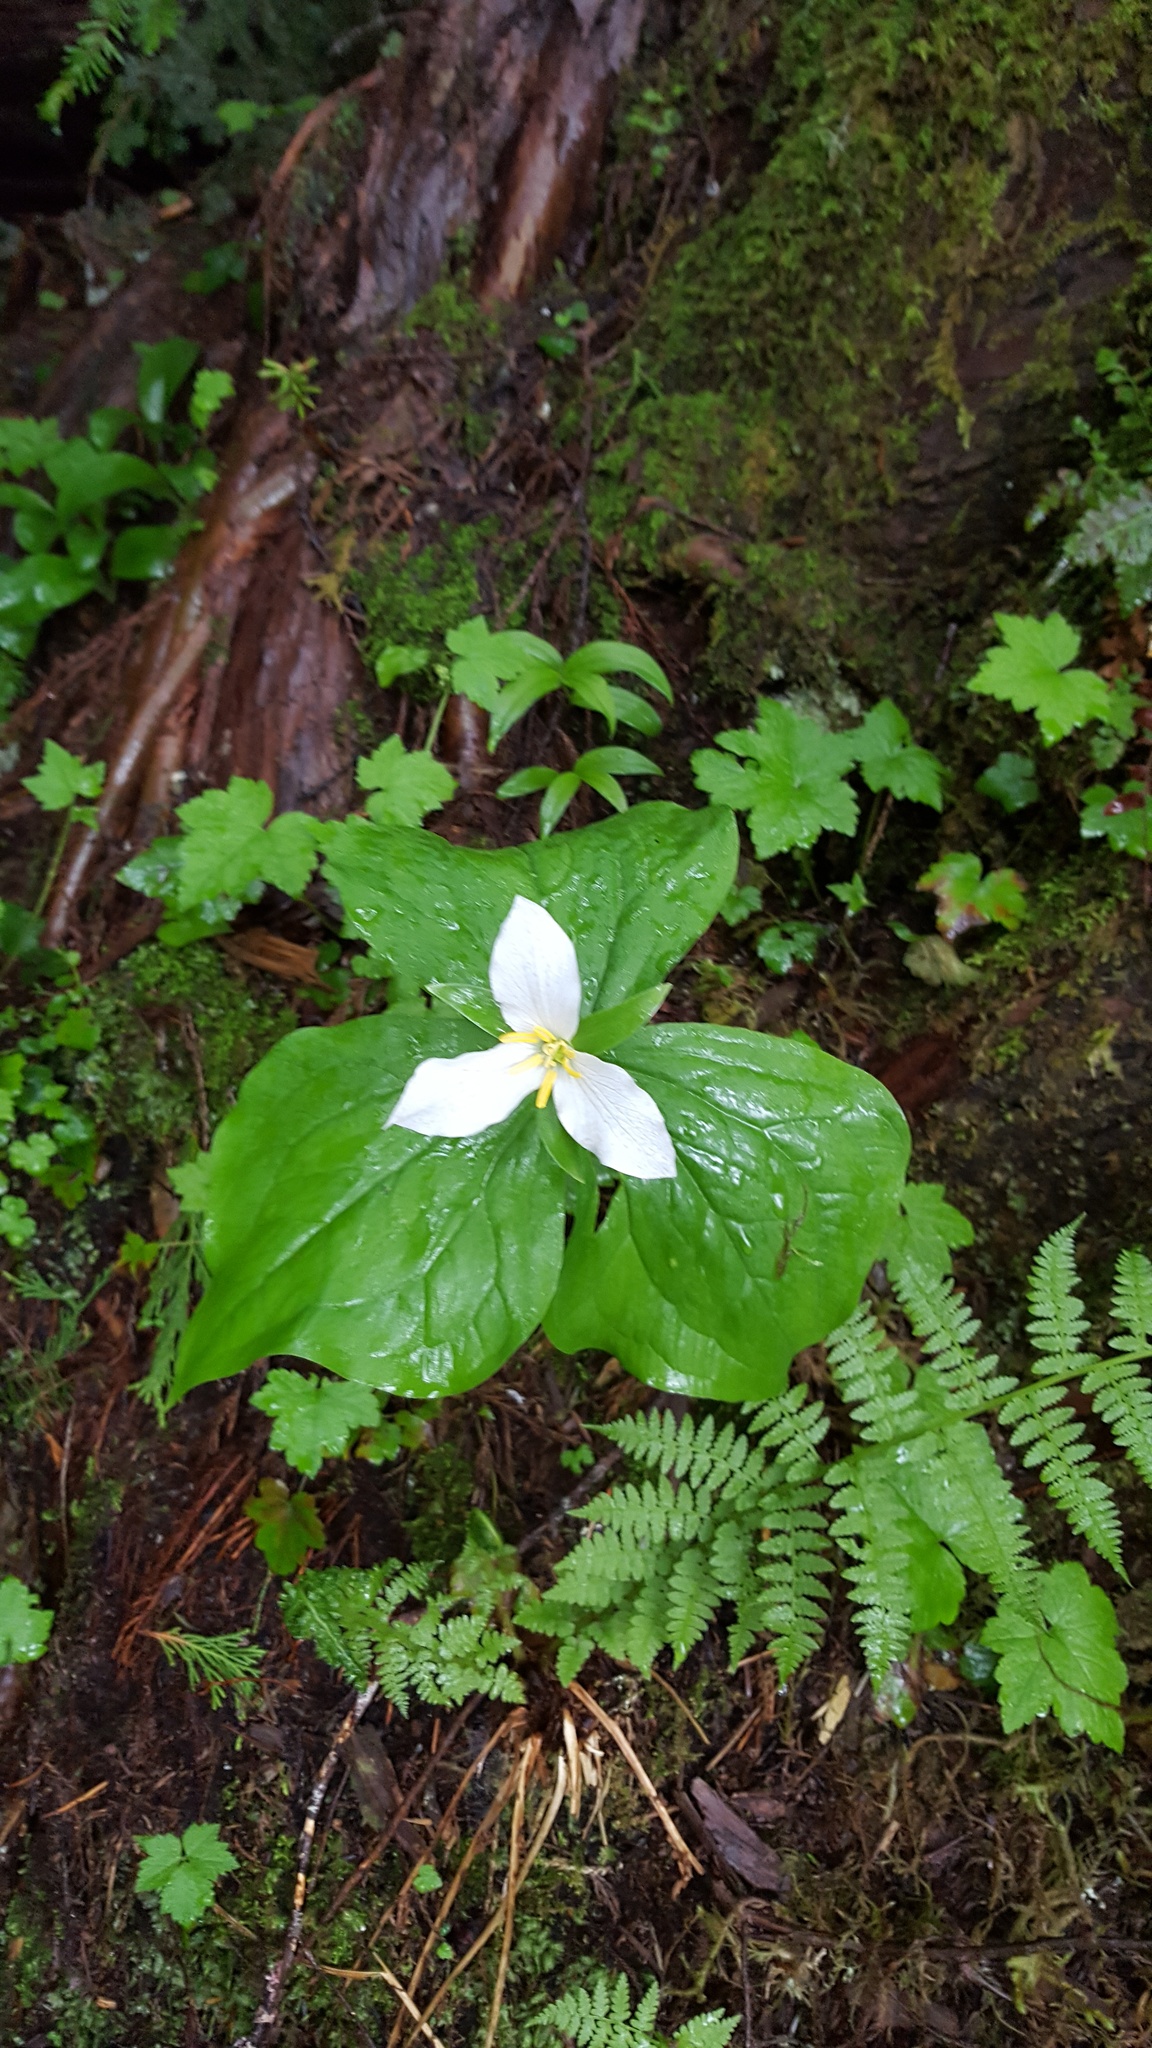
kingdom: Plantae
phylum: Tracheophyta
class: Liliopsida
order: Liliales
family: Melanthiaceae
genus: Trillium
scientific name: Trillium ovatum
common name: Pacific trillium
